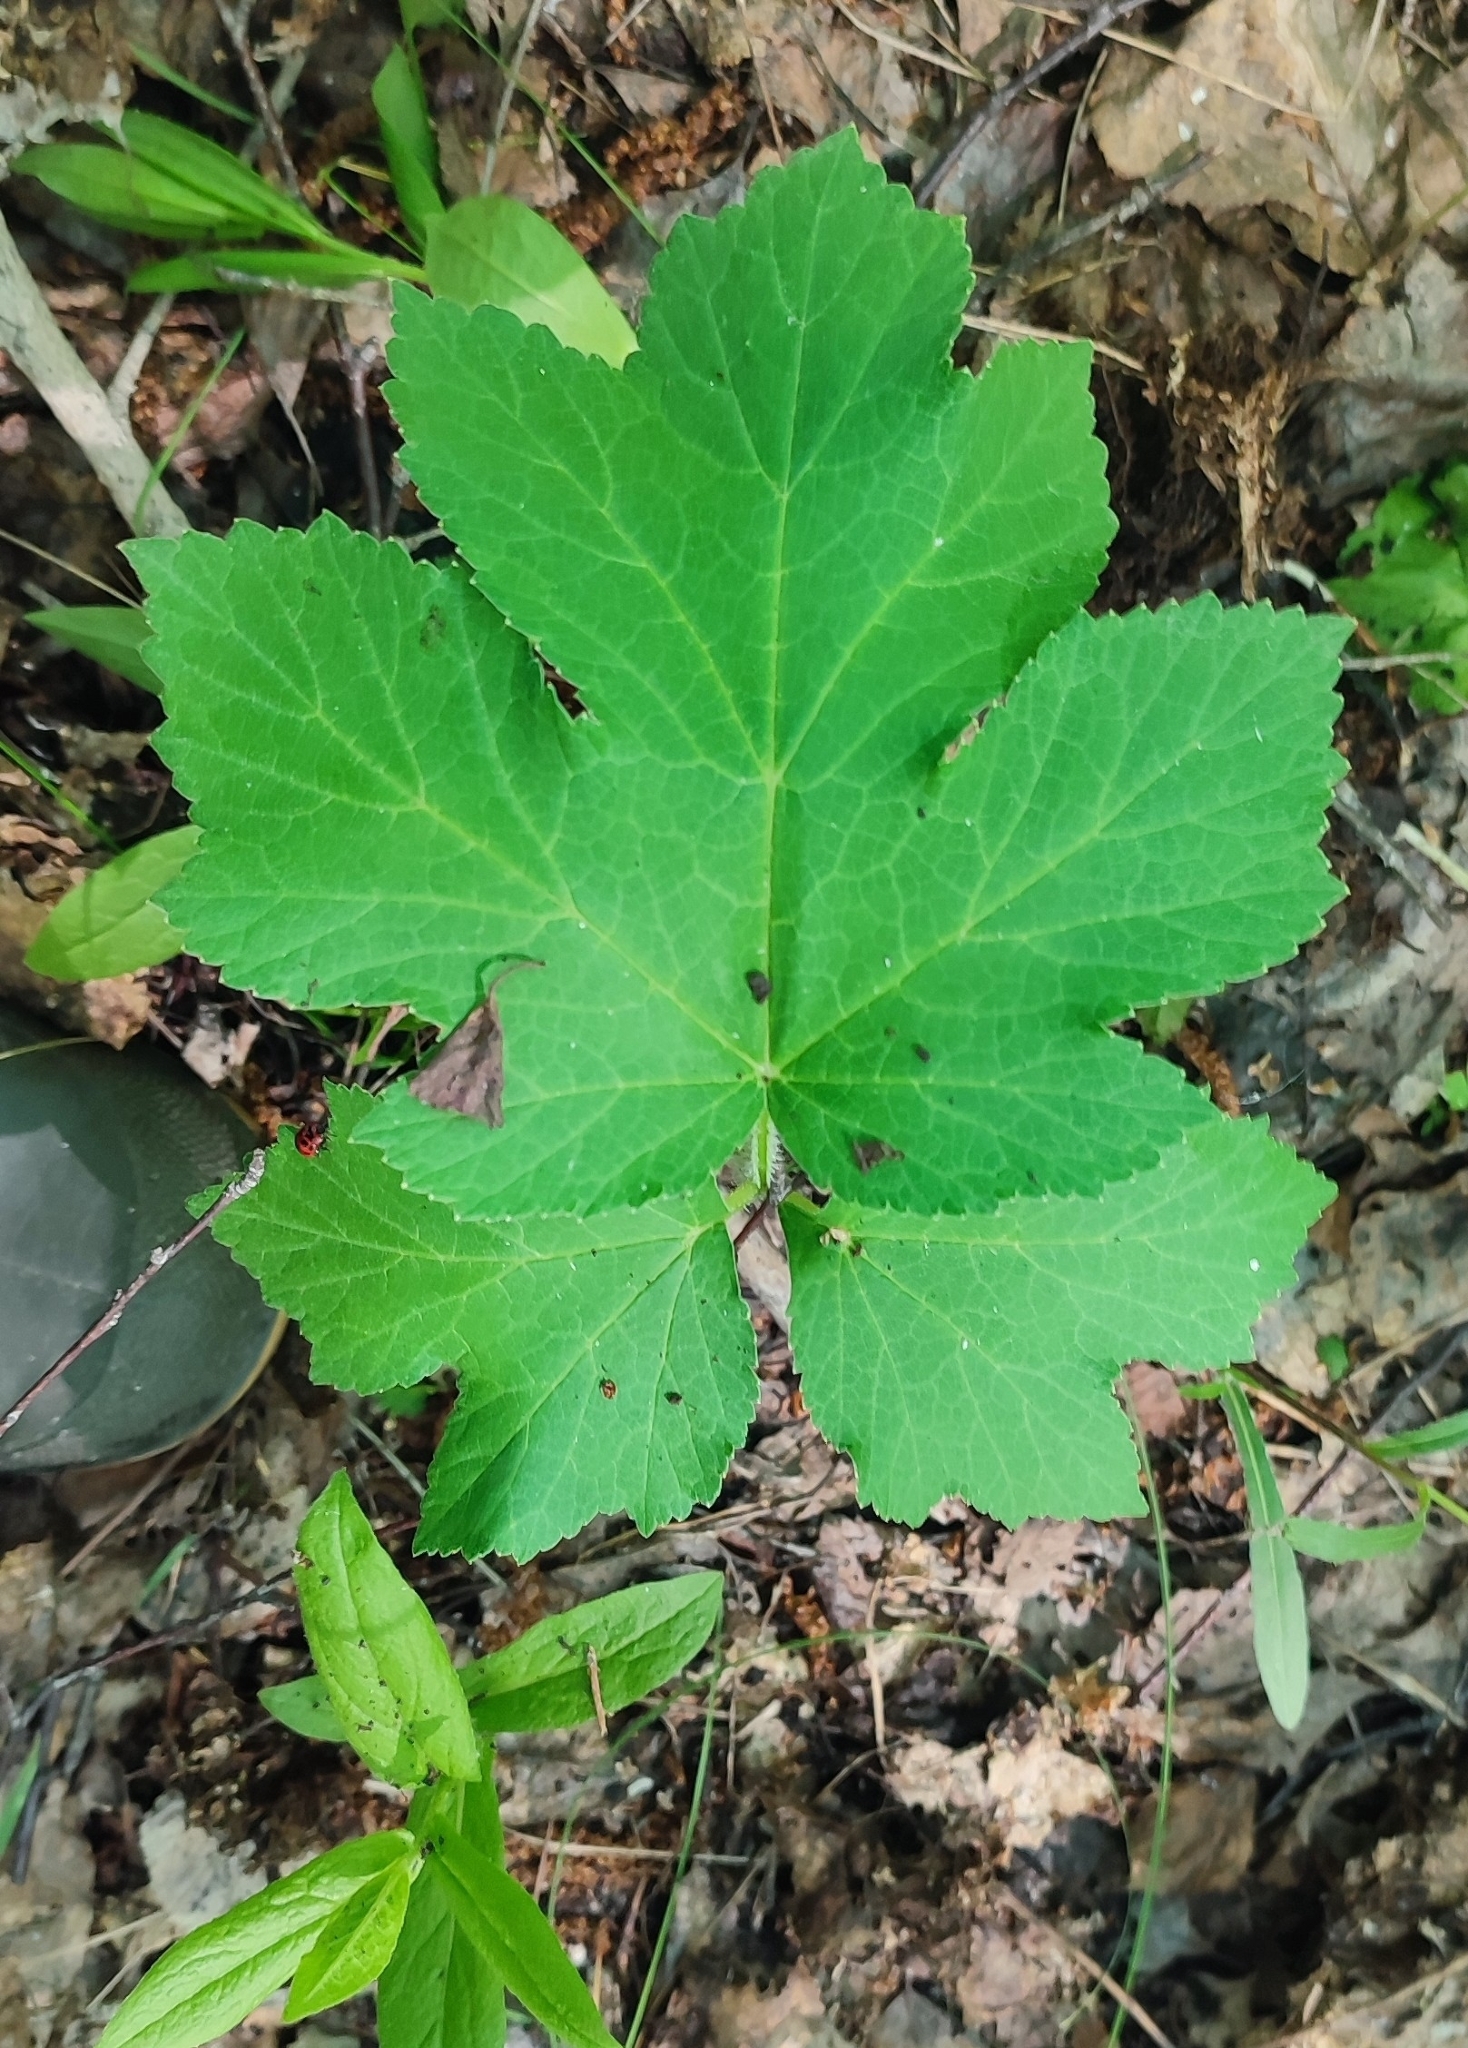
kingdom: Plantae
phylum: Tracheophyta
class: Magnoliopsida
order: Apiales
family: Apiaceae
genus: Heracleum
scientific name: Heracleum sphondylium
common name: Hogweed
